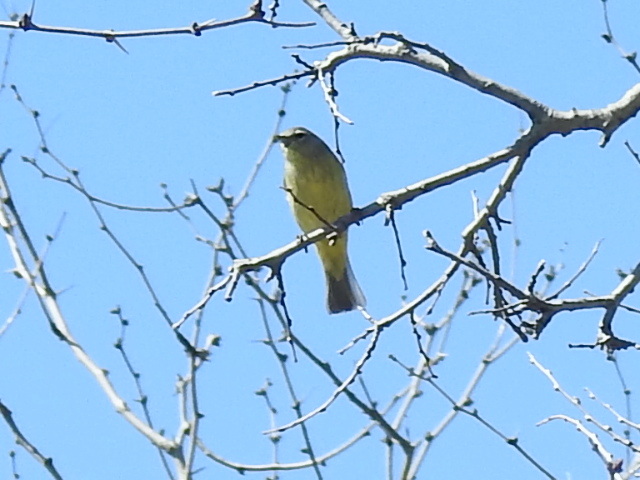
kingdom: Animalia
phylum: Chordata
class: Aves
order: Passeriformes
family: Parulidae
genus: Leiothlypis
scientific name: Leiothlypis celata
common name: Orange-crowned warbler
